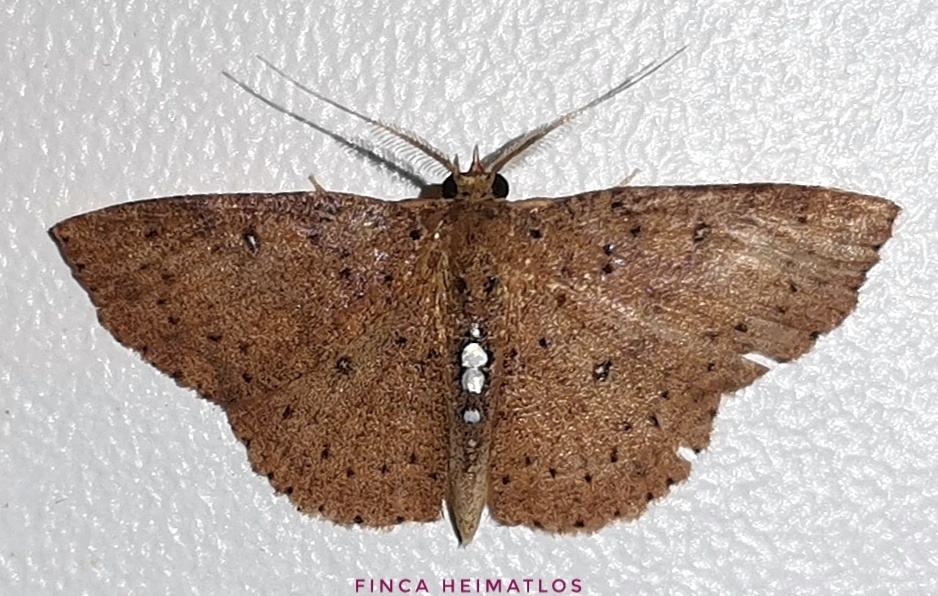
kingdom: Animalia
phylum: Arthropoda
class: Insecta
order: Lepidoptera
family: Geometridae
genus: Cyclophora
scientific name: Cyclophora megista
